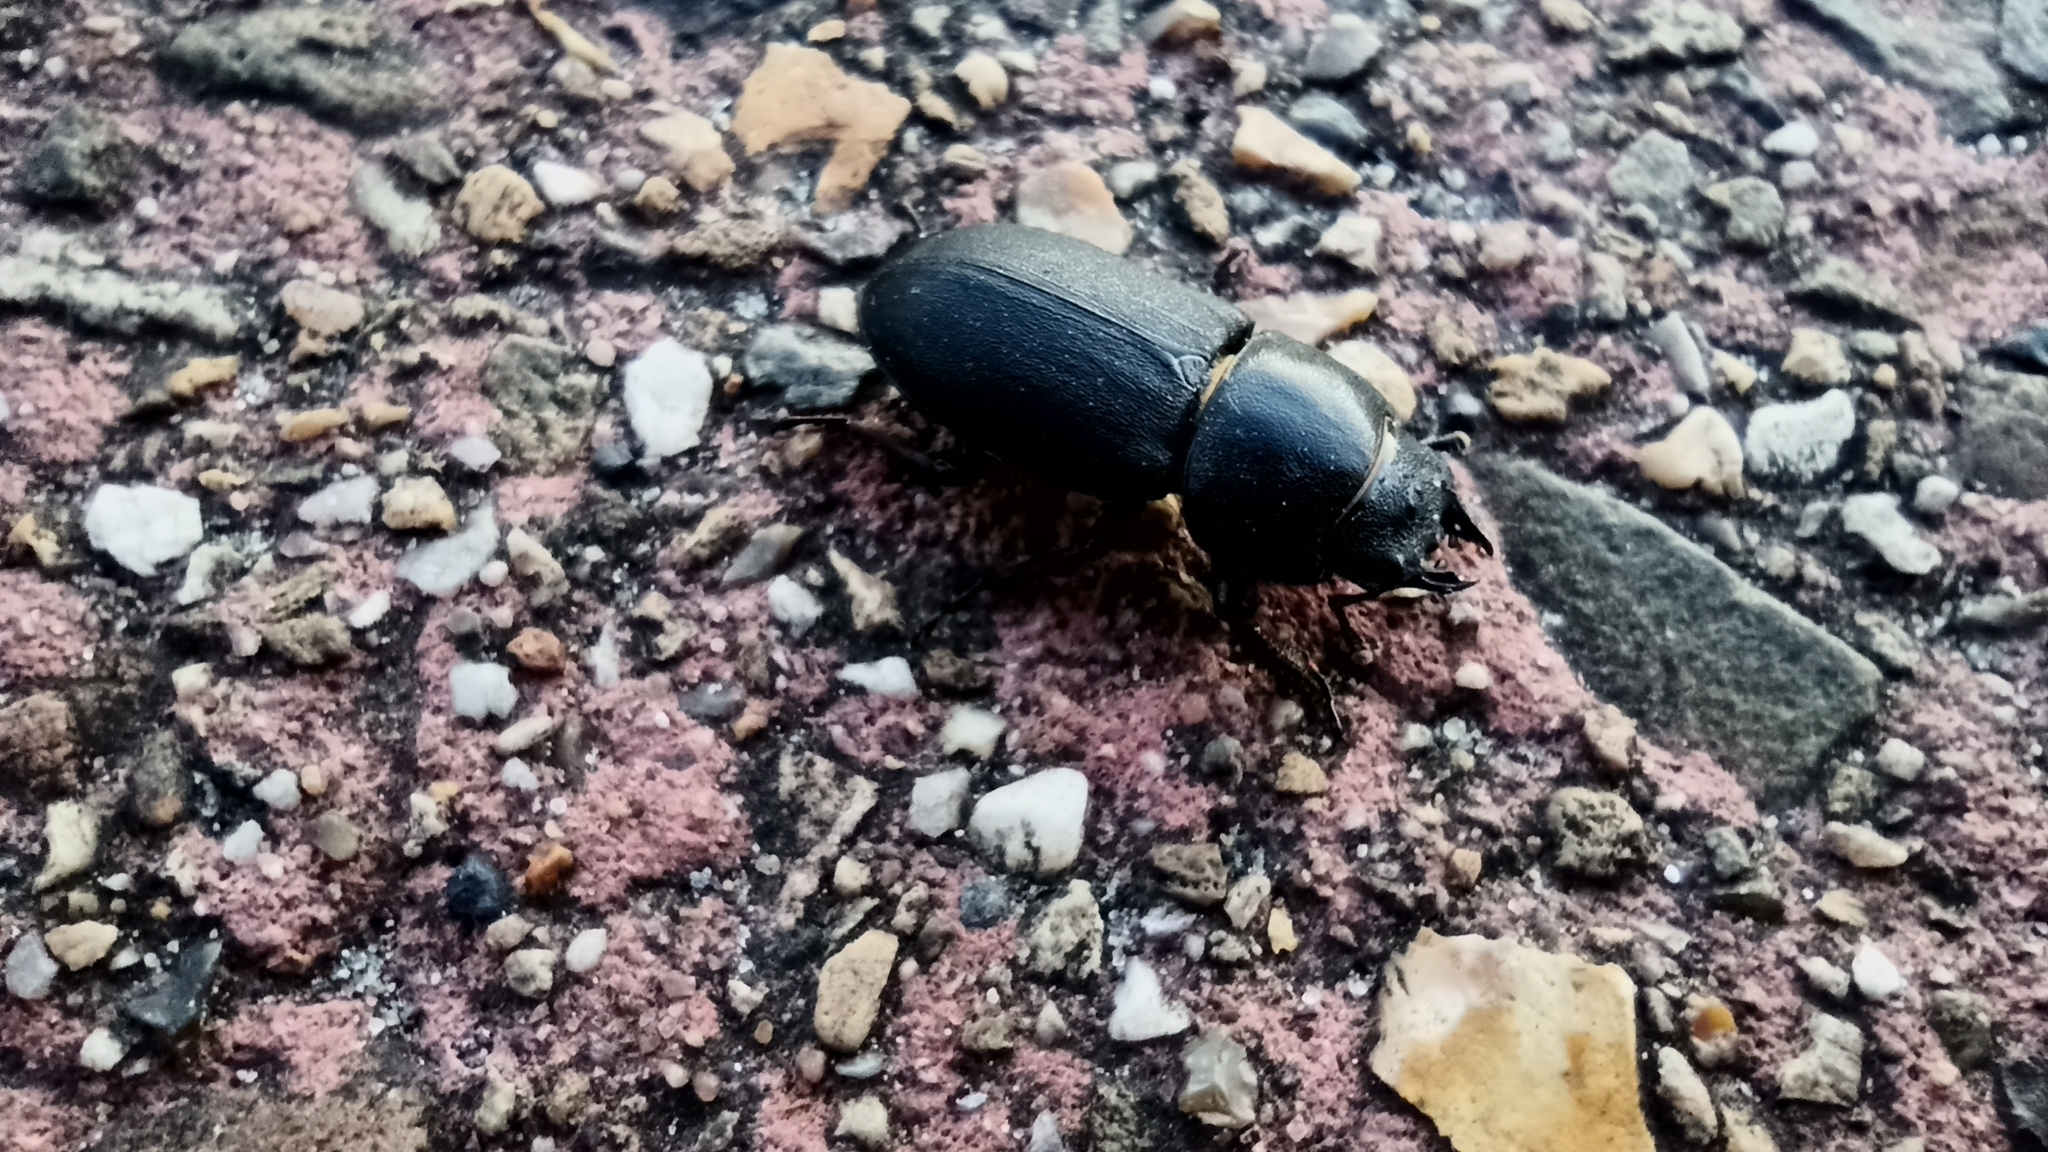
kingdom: Animalia
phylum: Arthropoda
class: Insecta
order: Coleoptera
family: Lucanidae
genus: Dorcus
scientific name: Dorcus parallelipipedus
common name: Lesser stag beetle
